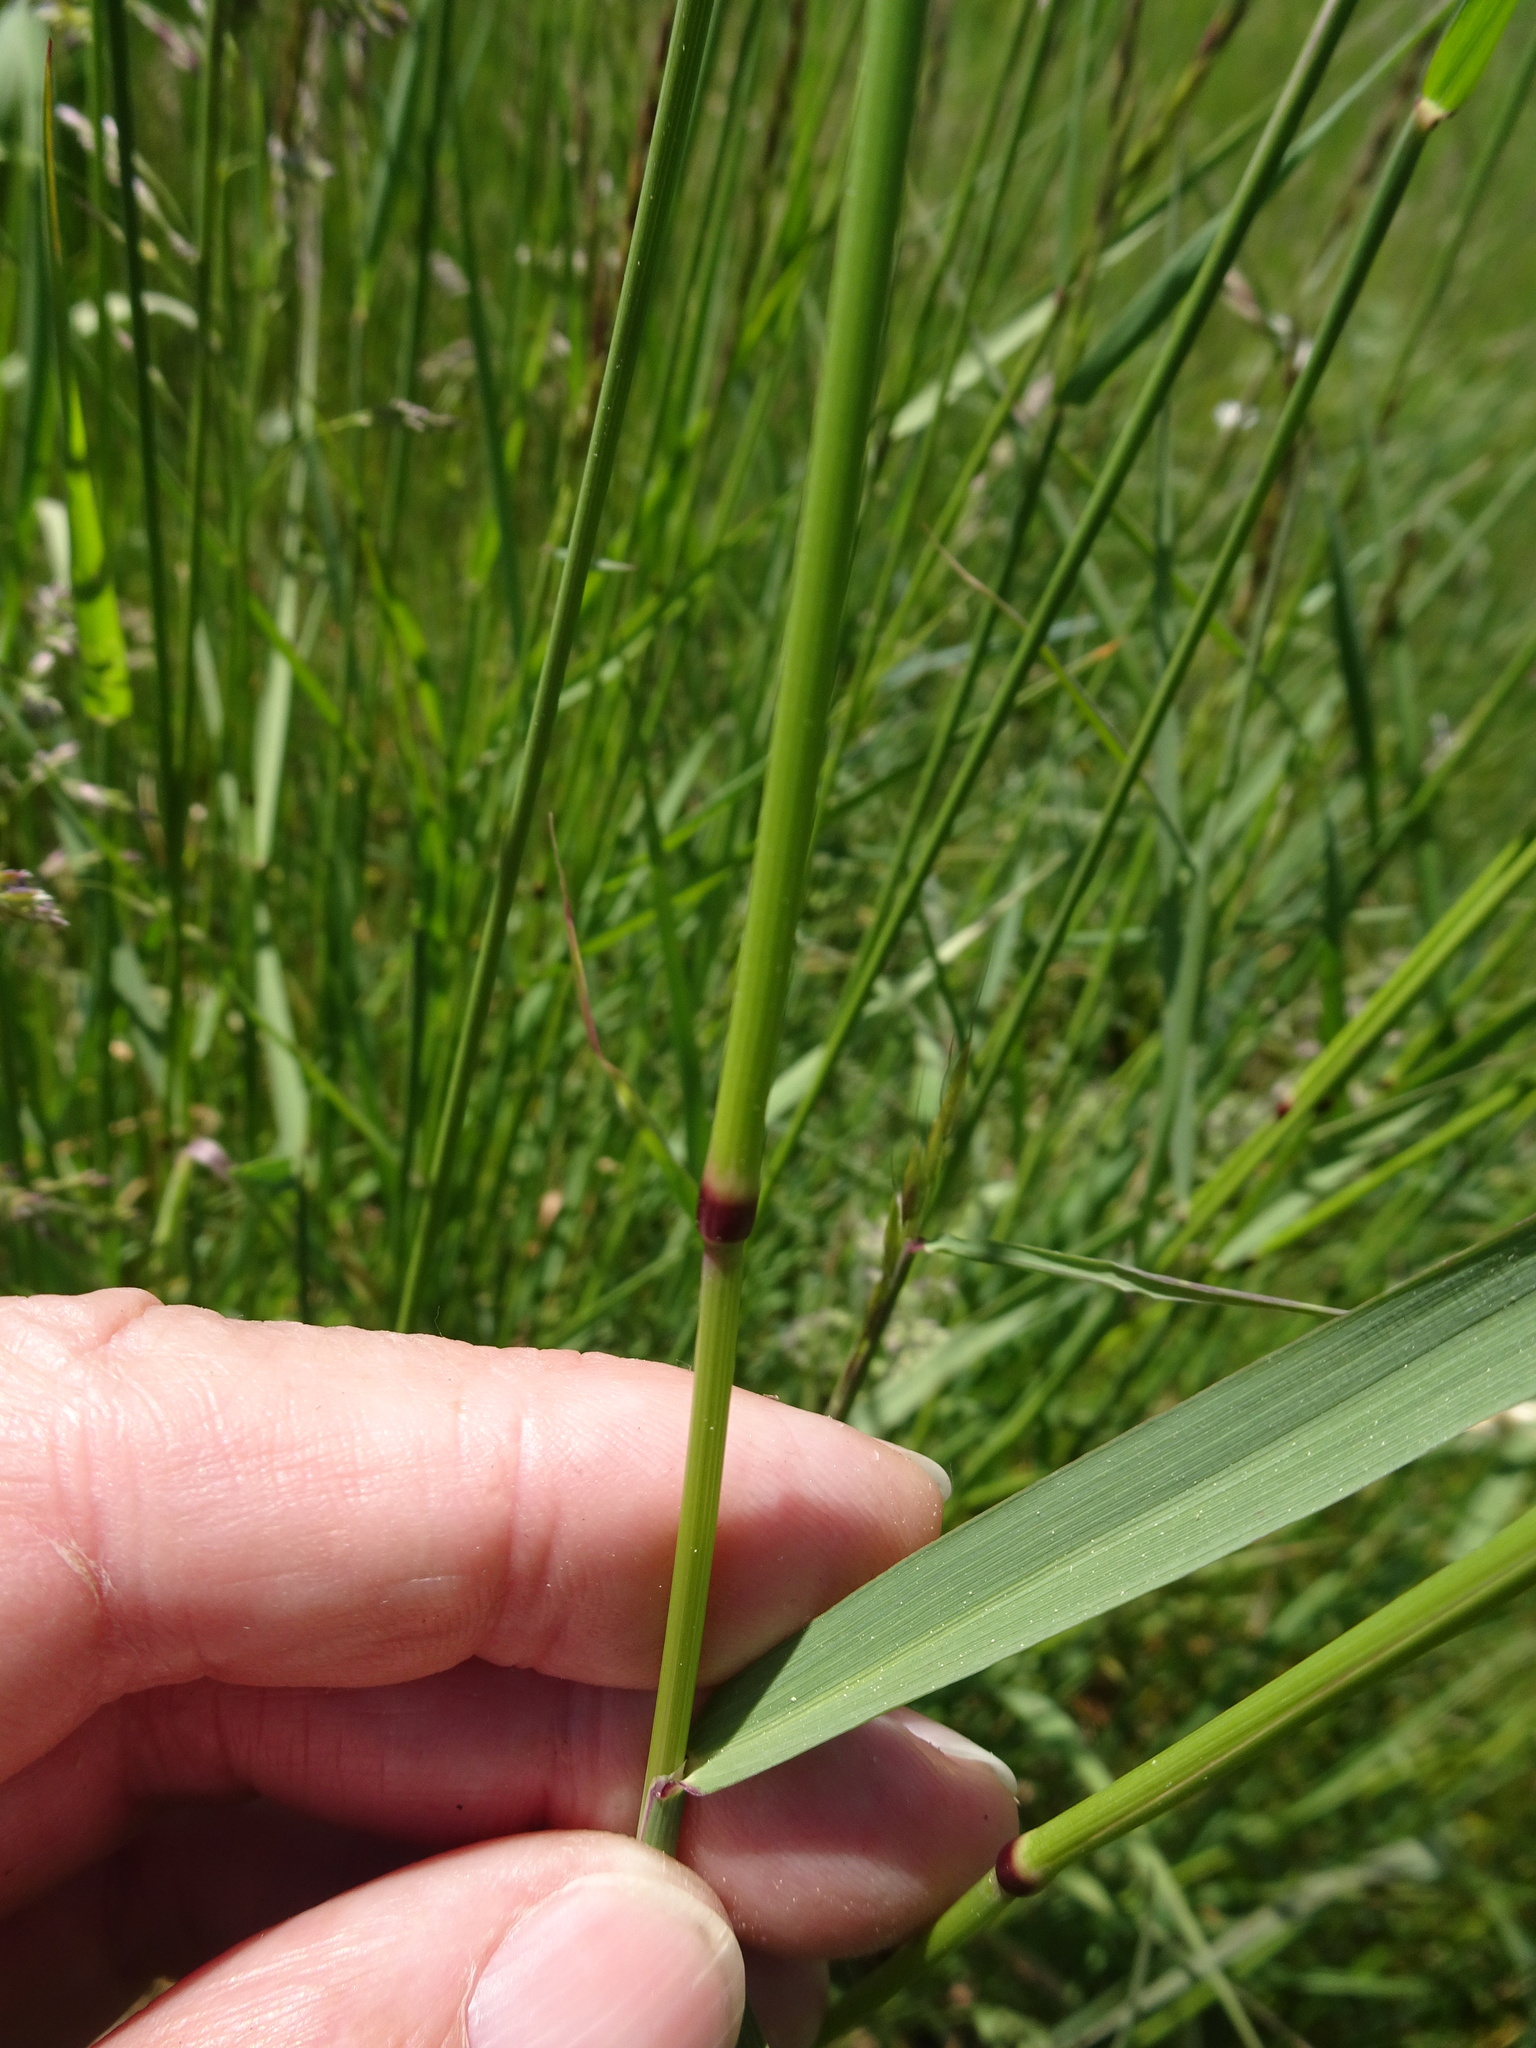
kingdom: Plantae
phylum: Tracheophyta
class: Liliopsida
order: Poales
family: Poaceae
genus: Arrhenatherum
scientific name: Arrhenatherum elatius
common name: Tall oatgrass
